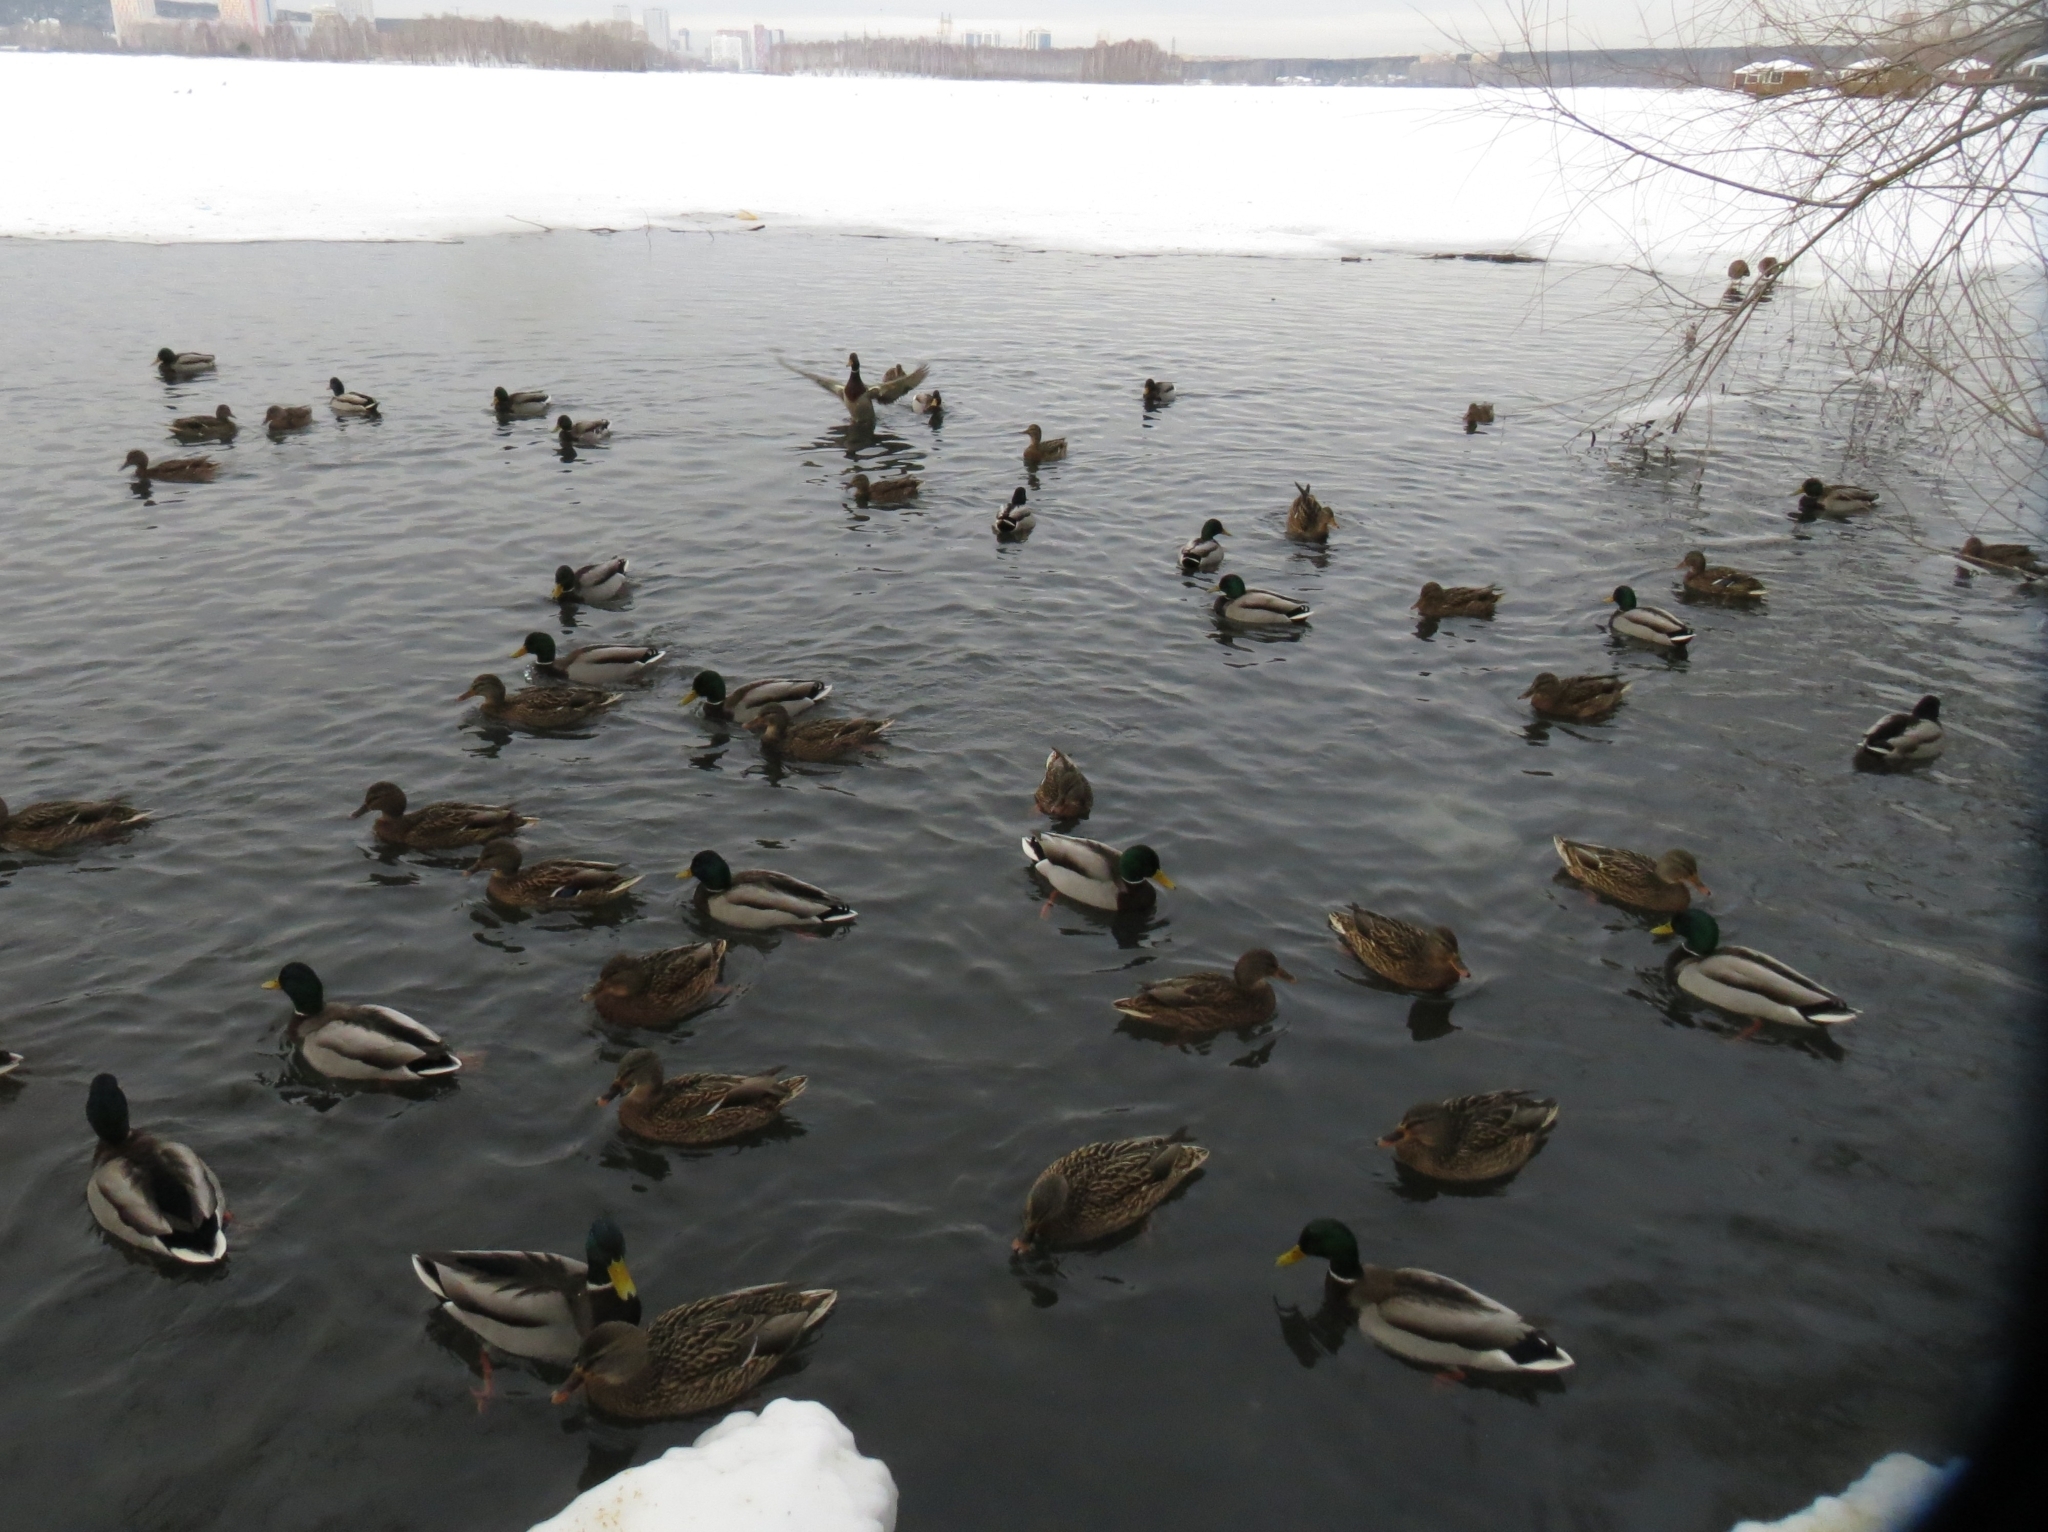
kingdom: Animalia
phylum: Chordata
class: Aves
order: Anseriformes
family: Anatidae
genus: Anas
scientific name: Anas platyrhynchos
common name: Mallard
